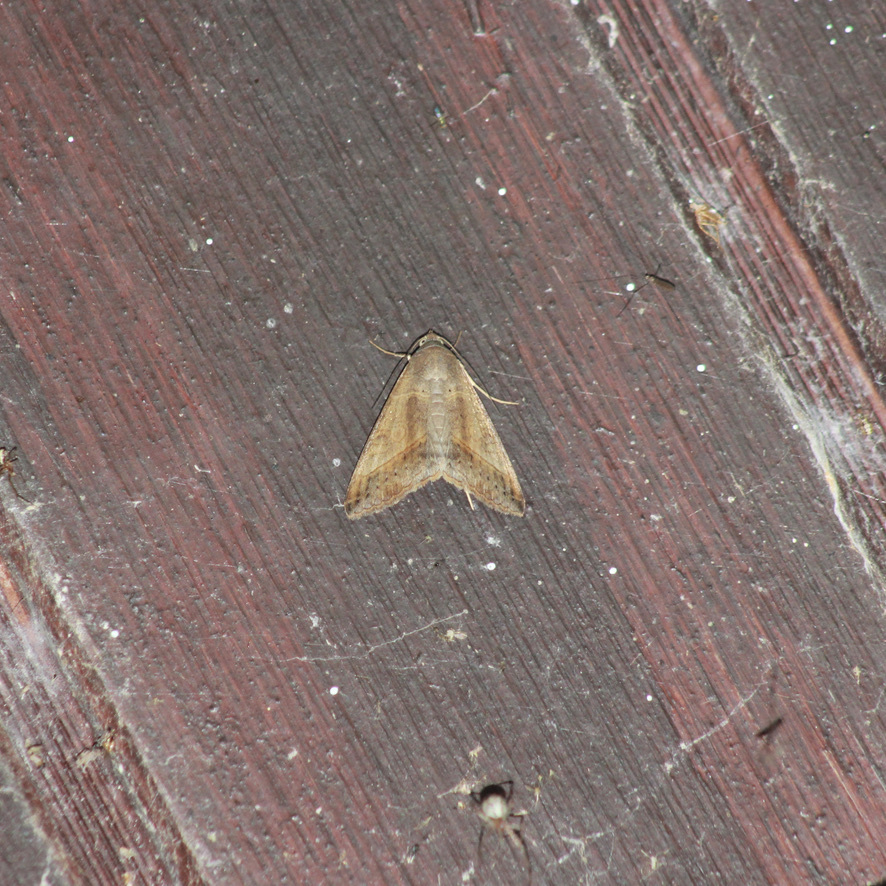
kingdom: Animalia
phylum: Arthropoda
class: Insecta
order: Lepidoptera
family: Erebidae
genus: Mocis
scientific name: Mocis latipes
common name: Striped grass looper
